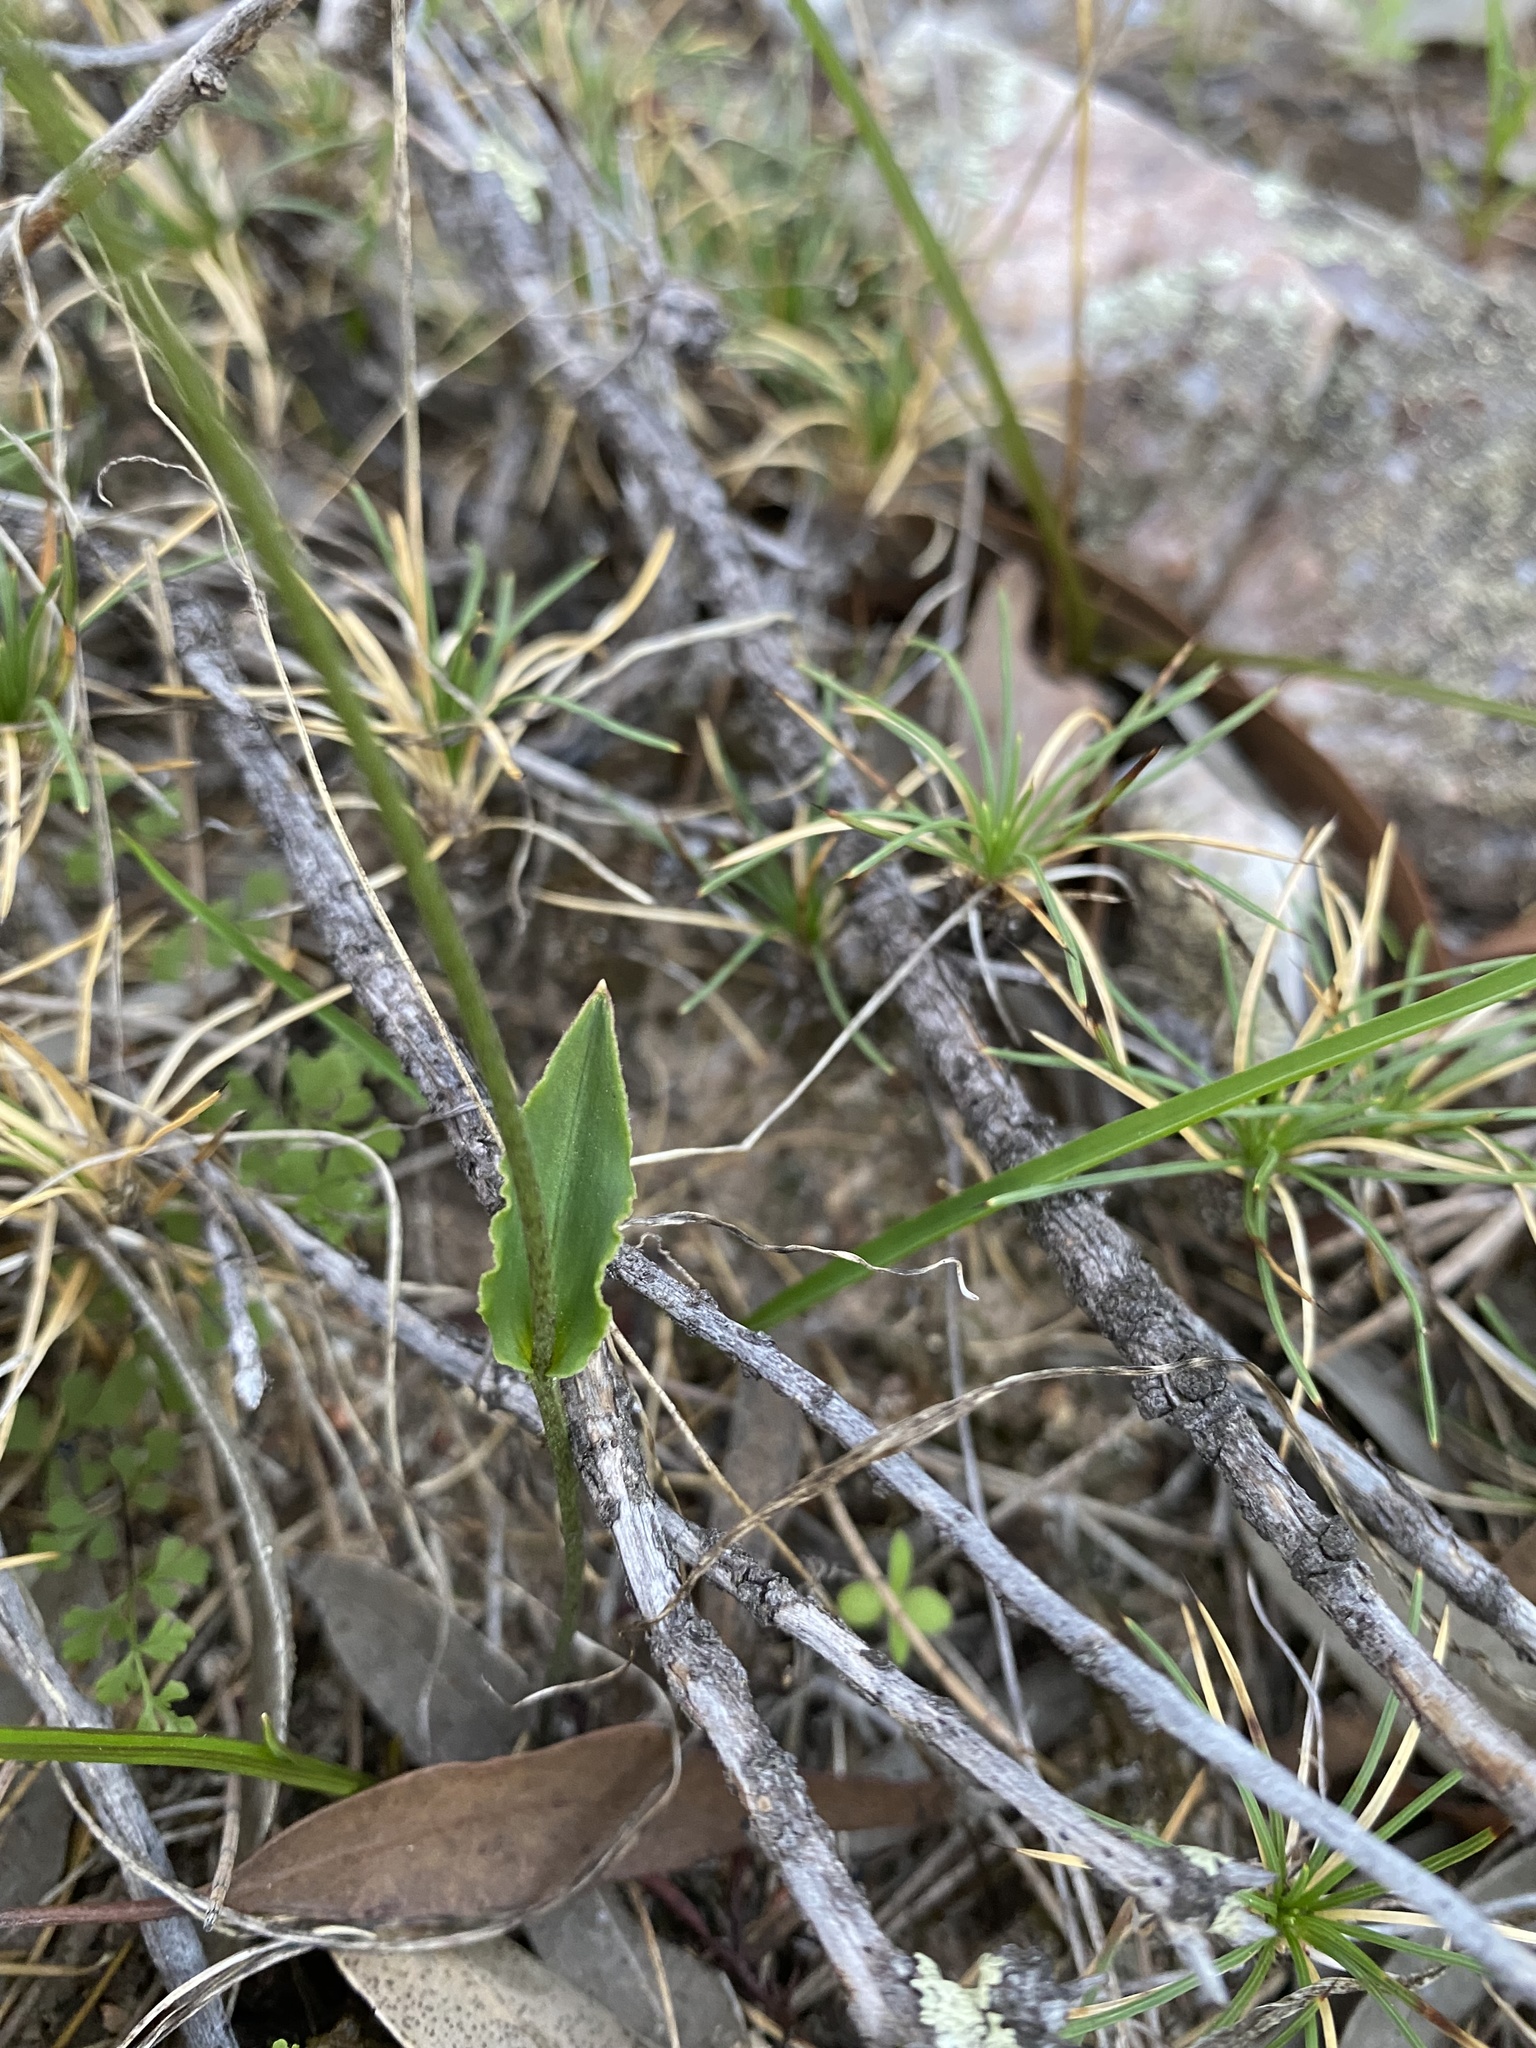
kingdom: Plantae
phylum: Tracheophyta
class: Liliopsida
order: Asparagales
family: Orchidaceae
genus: Eriochilus
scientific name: Eriochilus dilatatus
